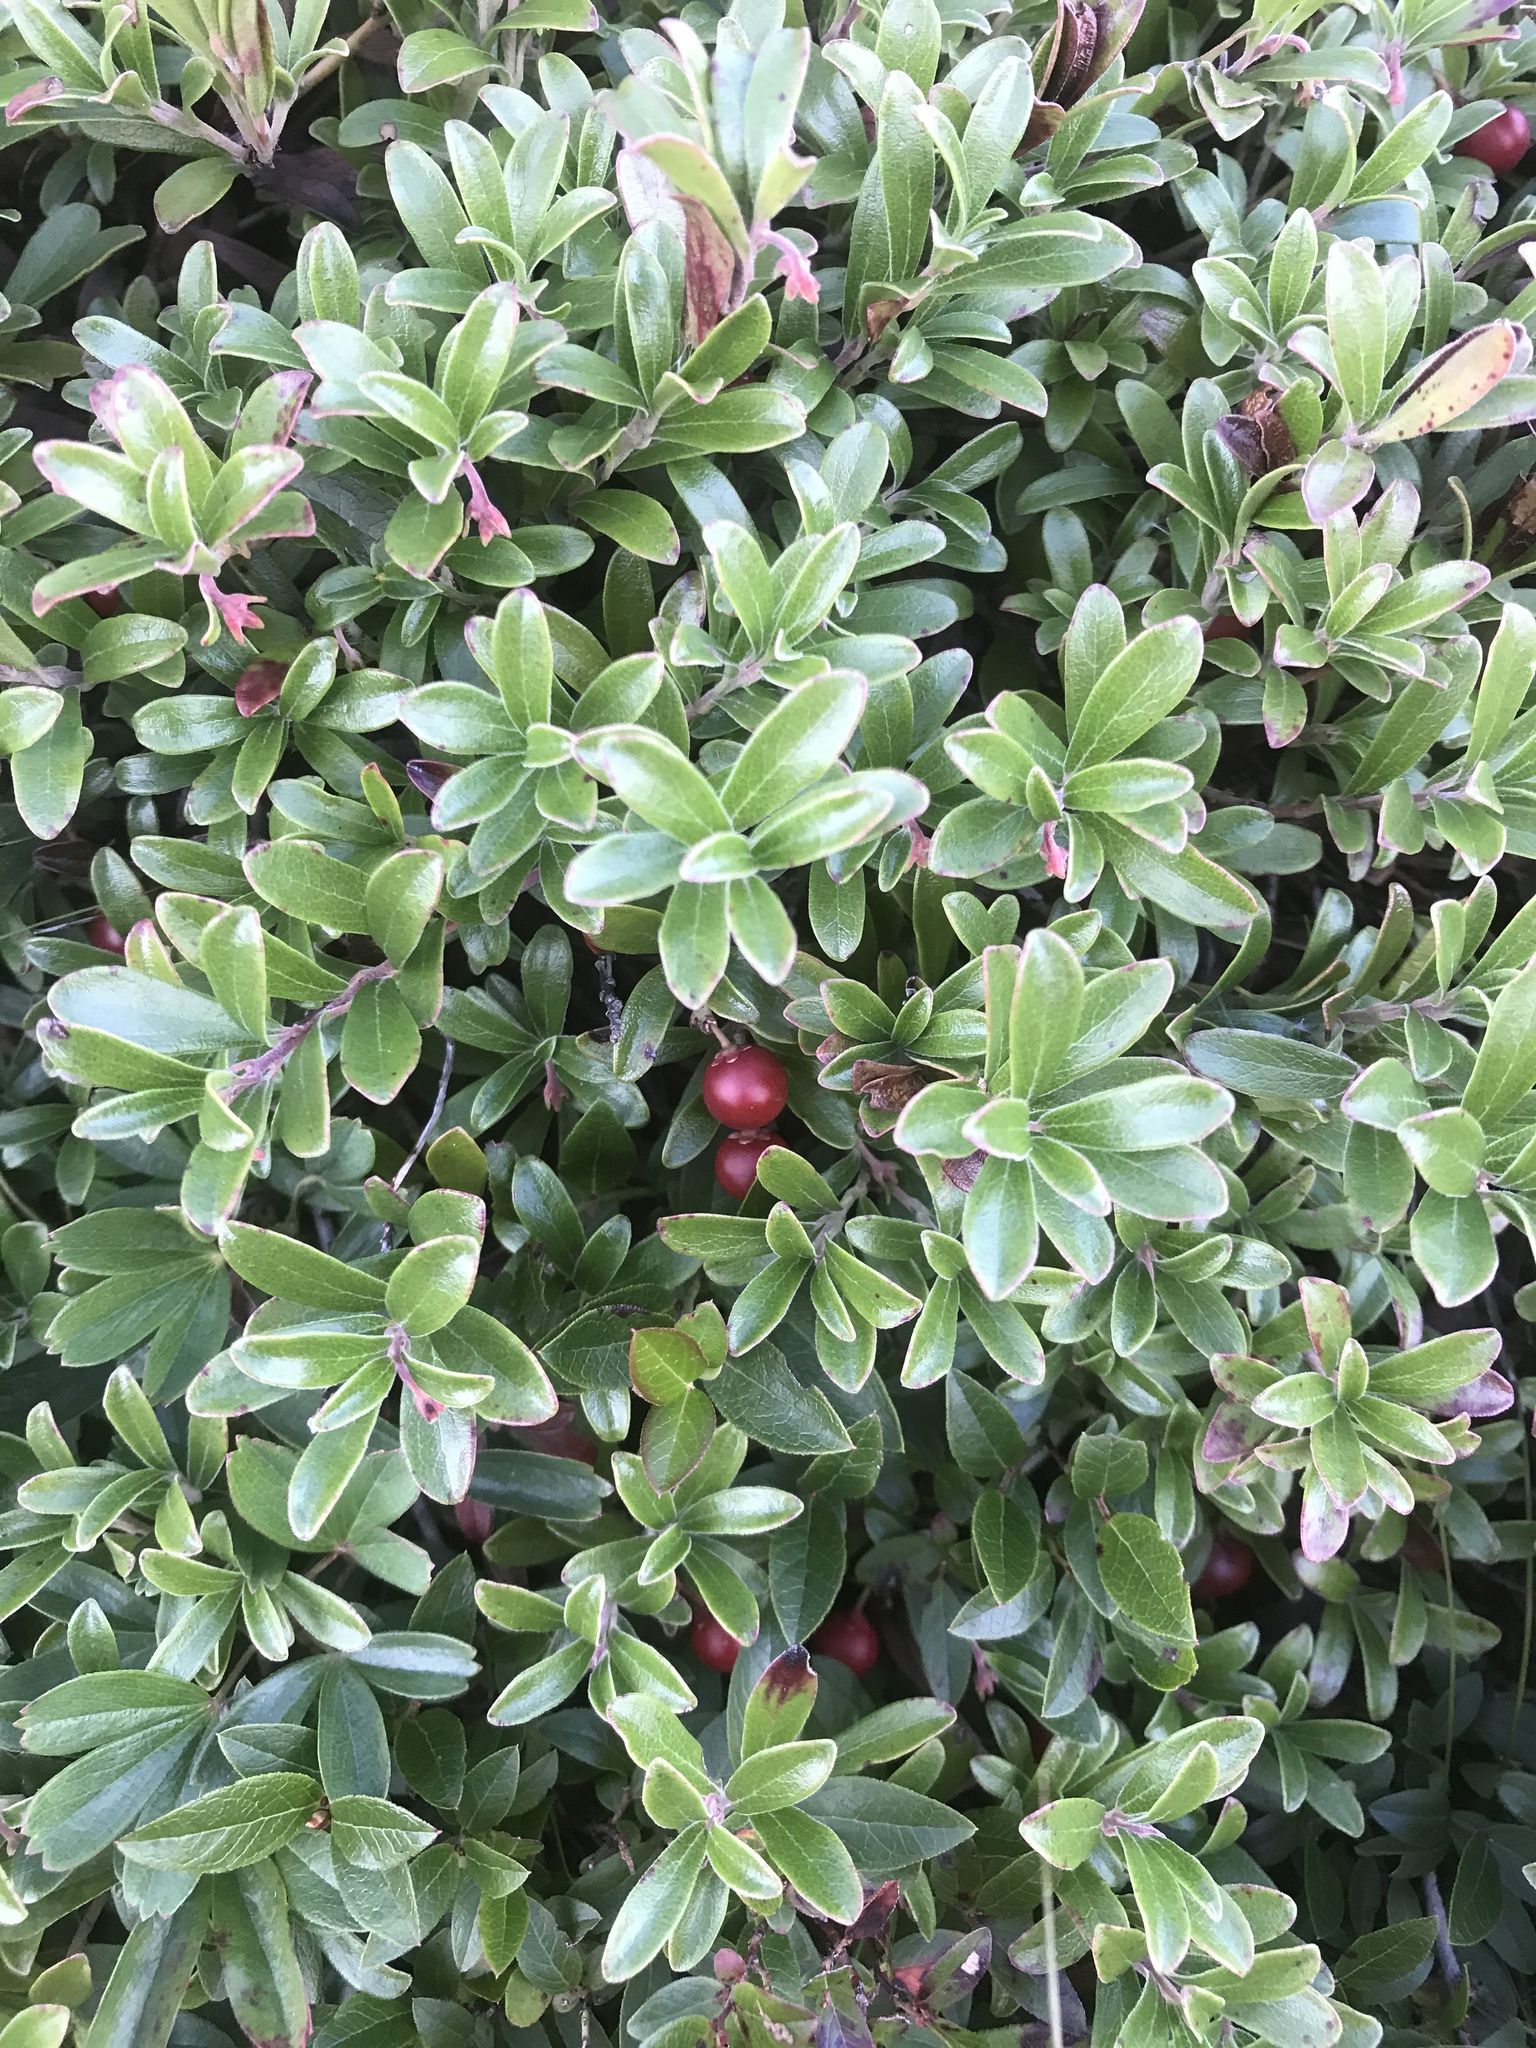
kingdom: Plantae
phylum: Tracheophyta
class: Magnoliopsida
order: Ericales
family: Ericaceae
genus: Arctostaphylos
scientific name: Arctostaphylos uva-ursi
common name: Bearberry
